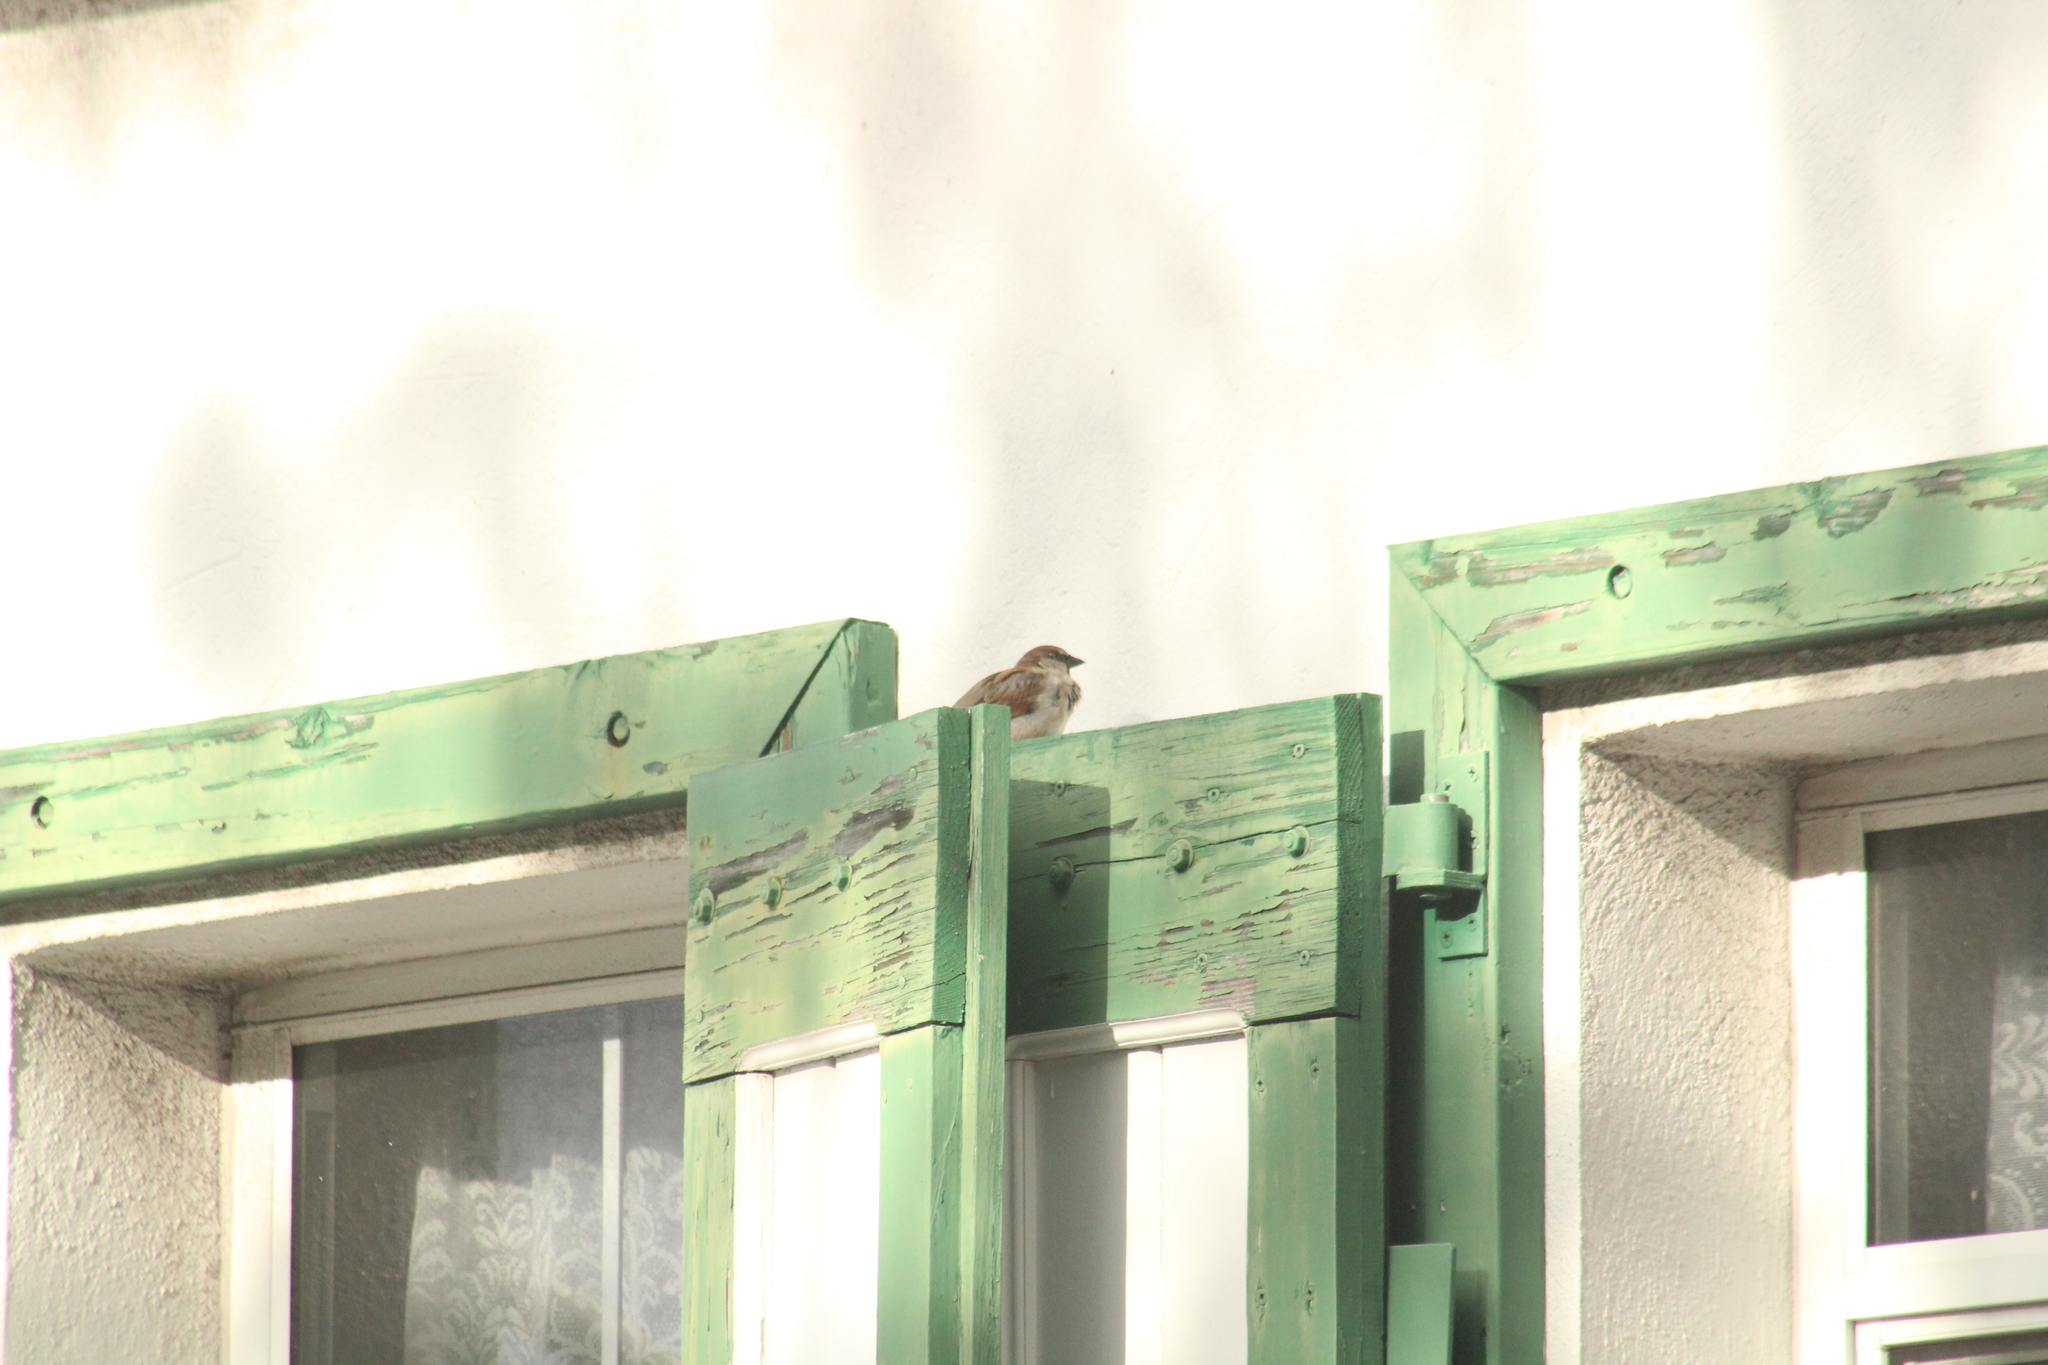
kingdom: Animalia
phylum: Chordata
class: Aves
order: Passeriformes
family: Passeridae
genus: Passer
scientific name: Passer domesticus
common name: House sparrow
